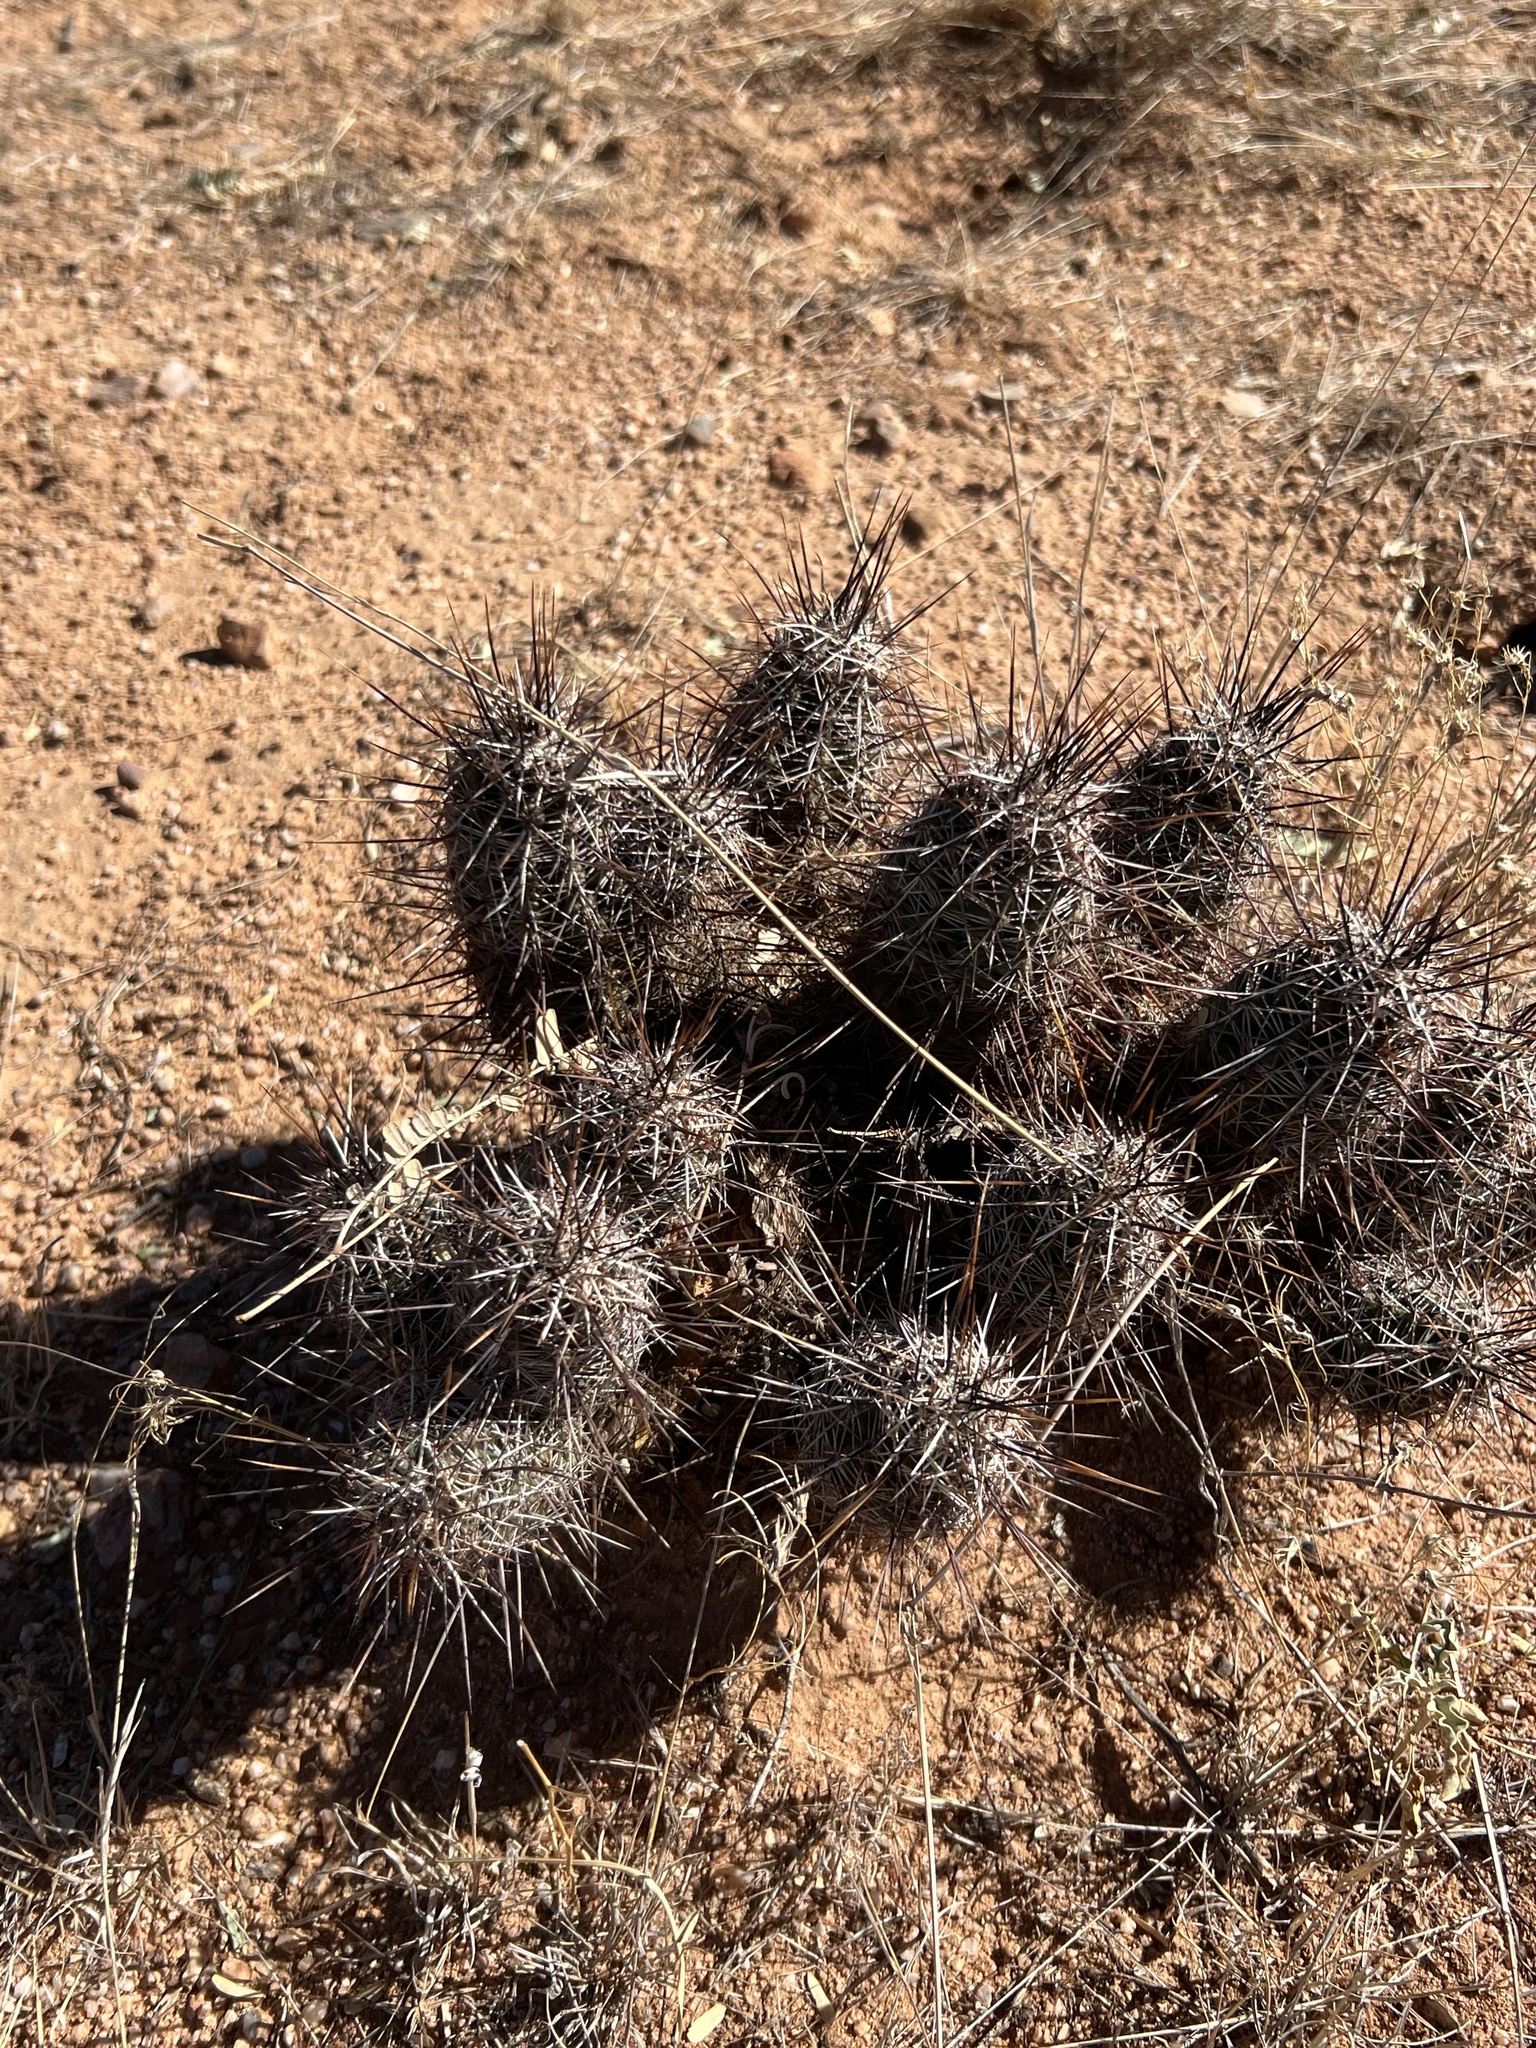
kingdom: Plantae
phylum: Tracheophyta
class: Magnoliopsida
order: Caryophyllales
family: Cactaceae
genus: Echinocereus
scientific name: Echinocereus fasciculatus
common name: Bundle hedgehog
